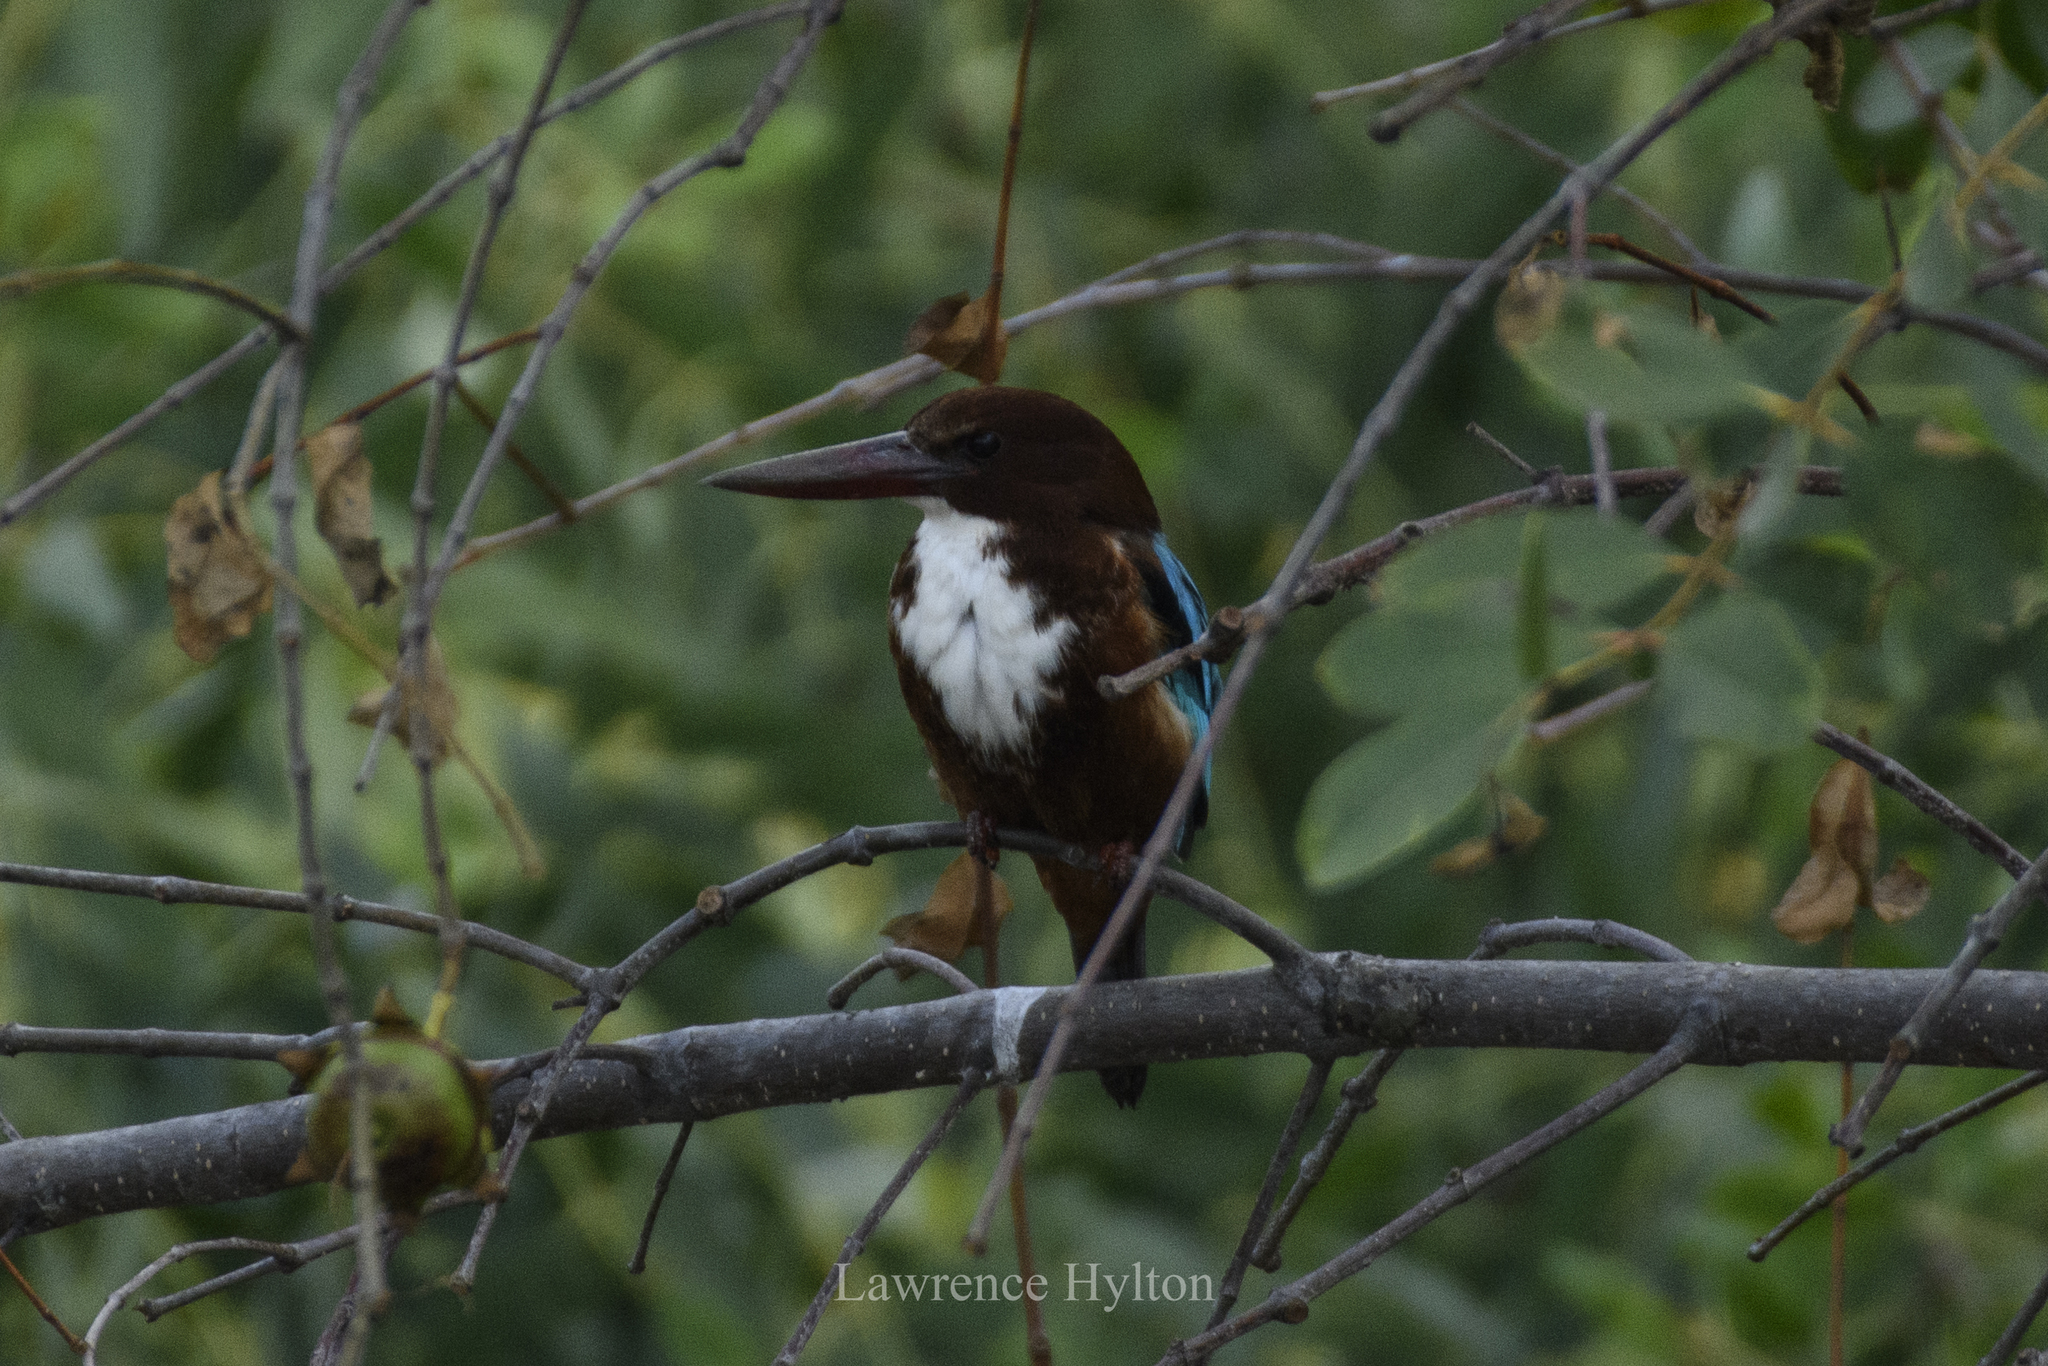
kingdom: Animalia
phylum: Chordata
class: Aves
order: Coraciiformes
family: Alcedinidae
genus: Halcyon
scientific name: Halcyon smyrnensis
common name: White-throated kingfisher
